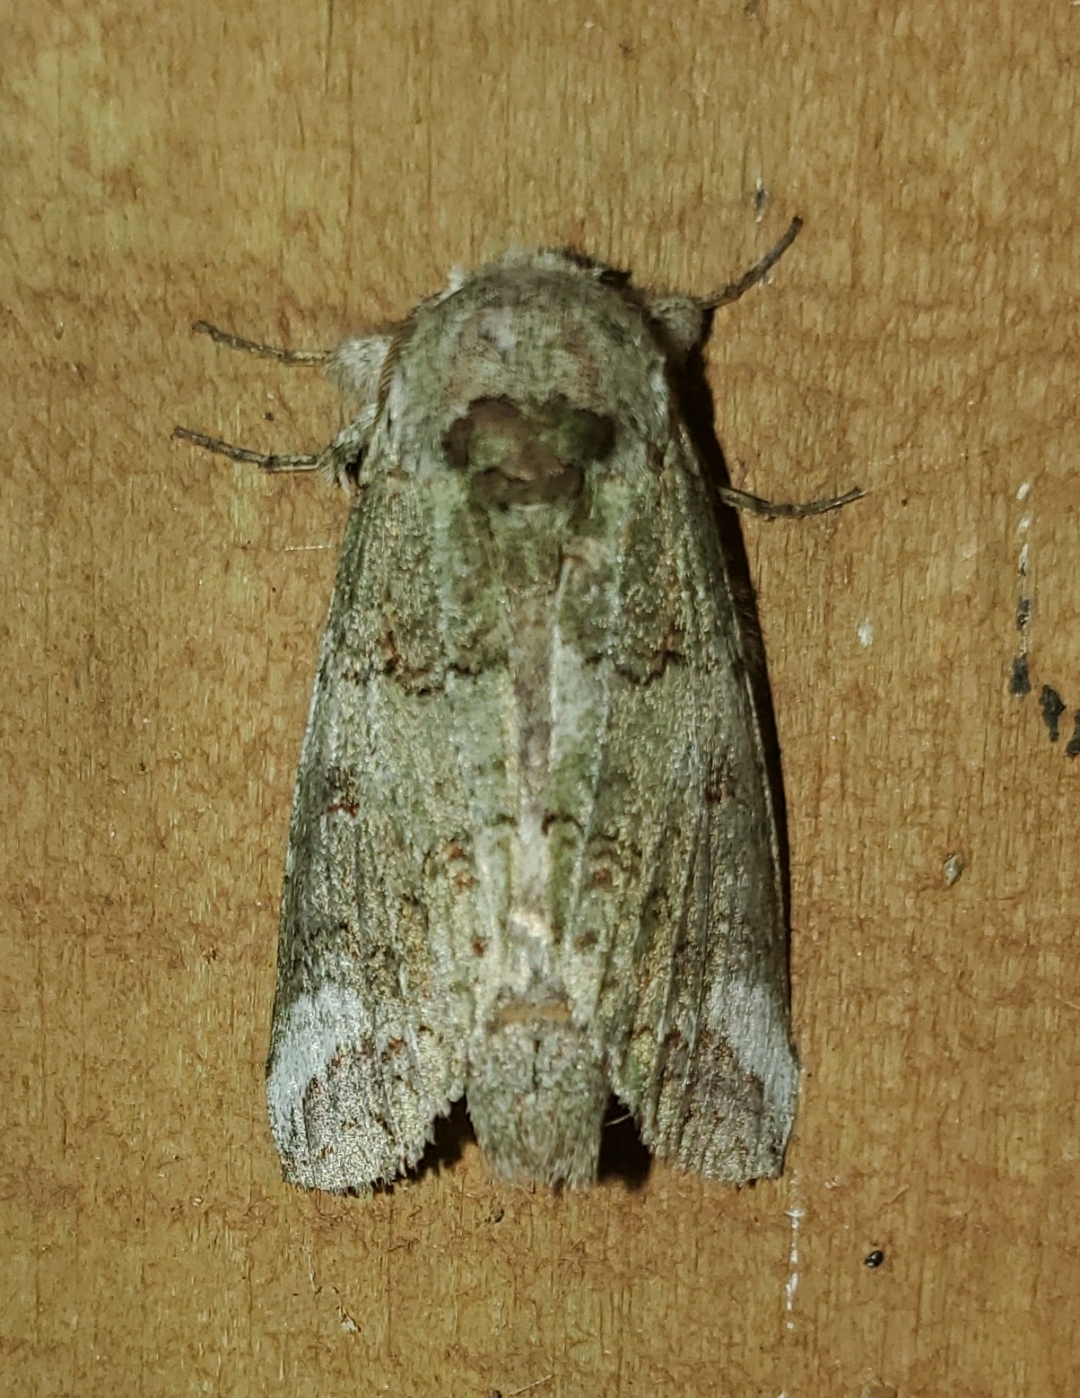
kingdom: Animalia
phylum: Arthropoda
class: Insecta
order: Lepidoptera
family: Notodontidae
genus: Heterocampa
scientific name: Heterocampa astarte
